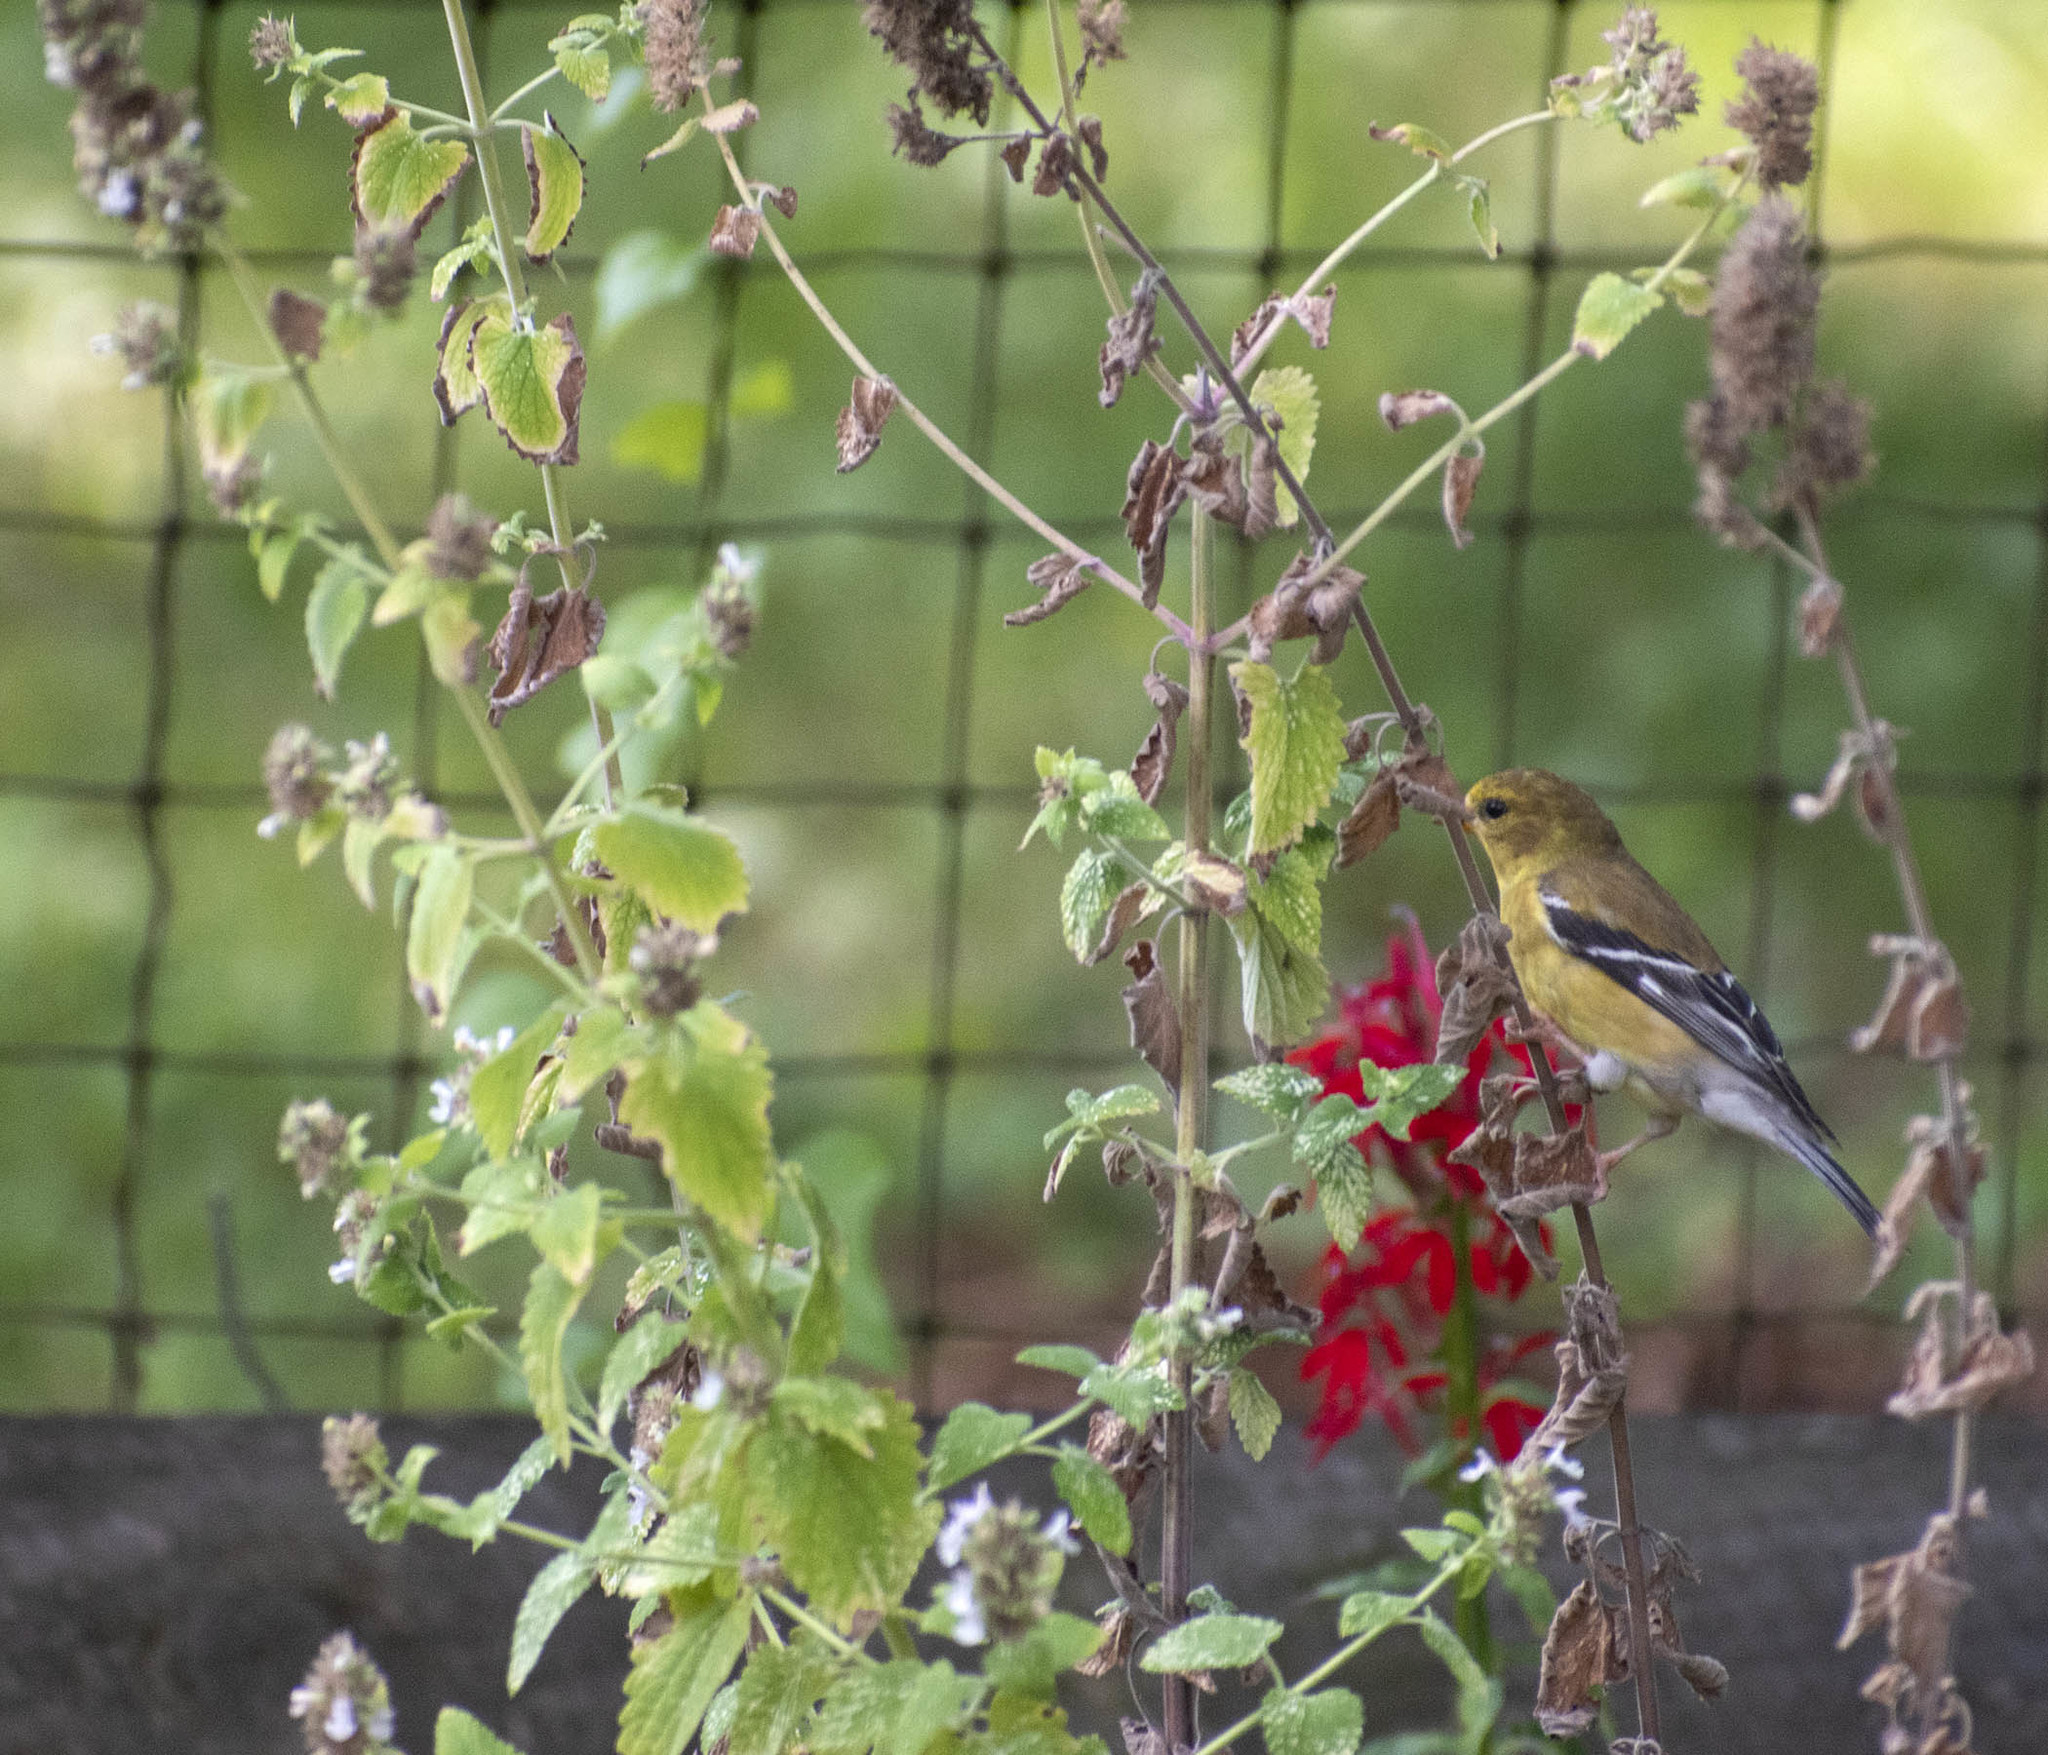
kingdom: Animalia
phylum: Chordata
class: Aves
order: Passeriformes
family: Fringillidae
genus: Spinus
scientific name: Spinus tristis
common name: American goldfinch
